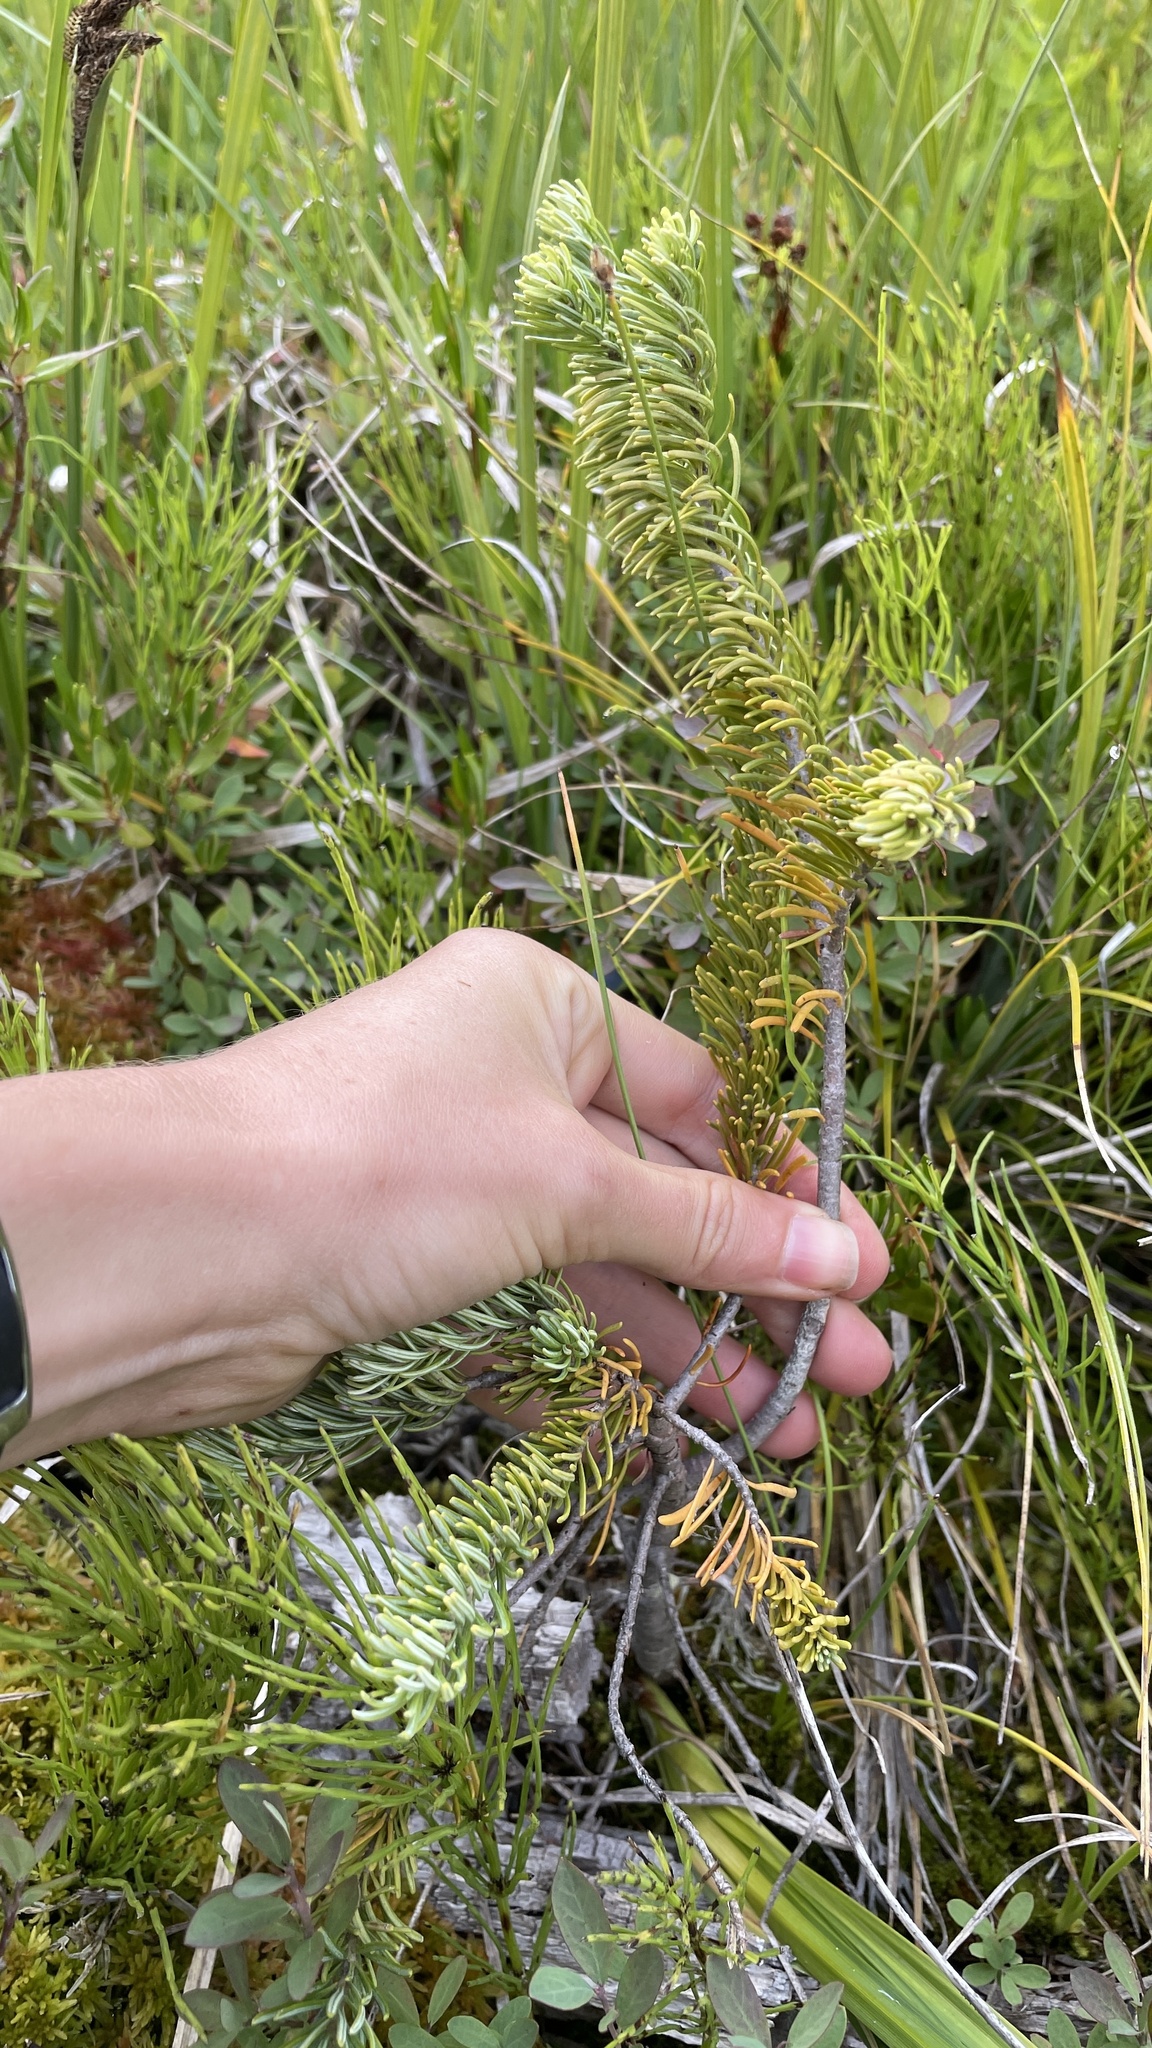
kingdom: Plantae
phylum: Tracheophyta
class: Pinopsida
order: Pinales
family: Pinaceae
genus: Abies
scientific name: Abies lasiocarpa
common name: Subalpine fir
